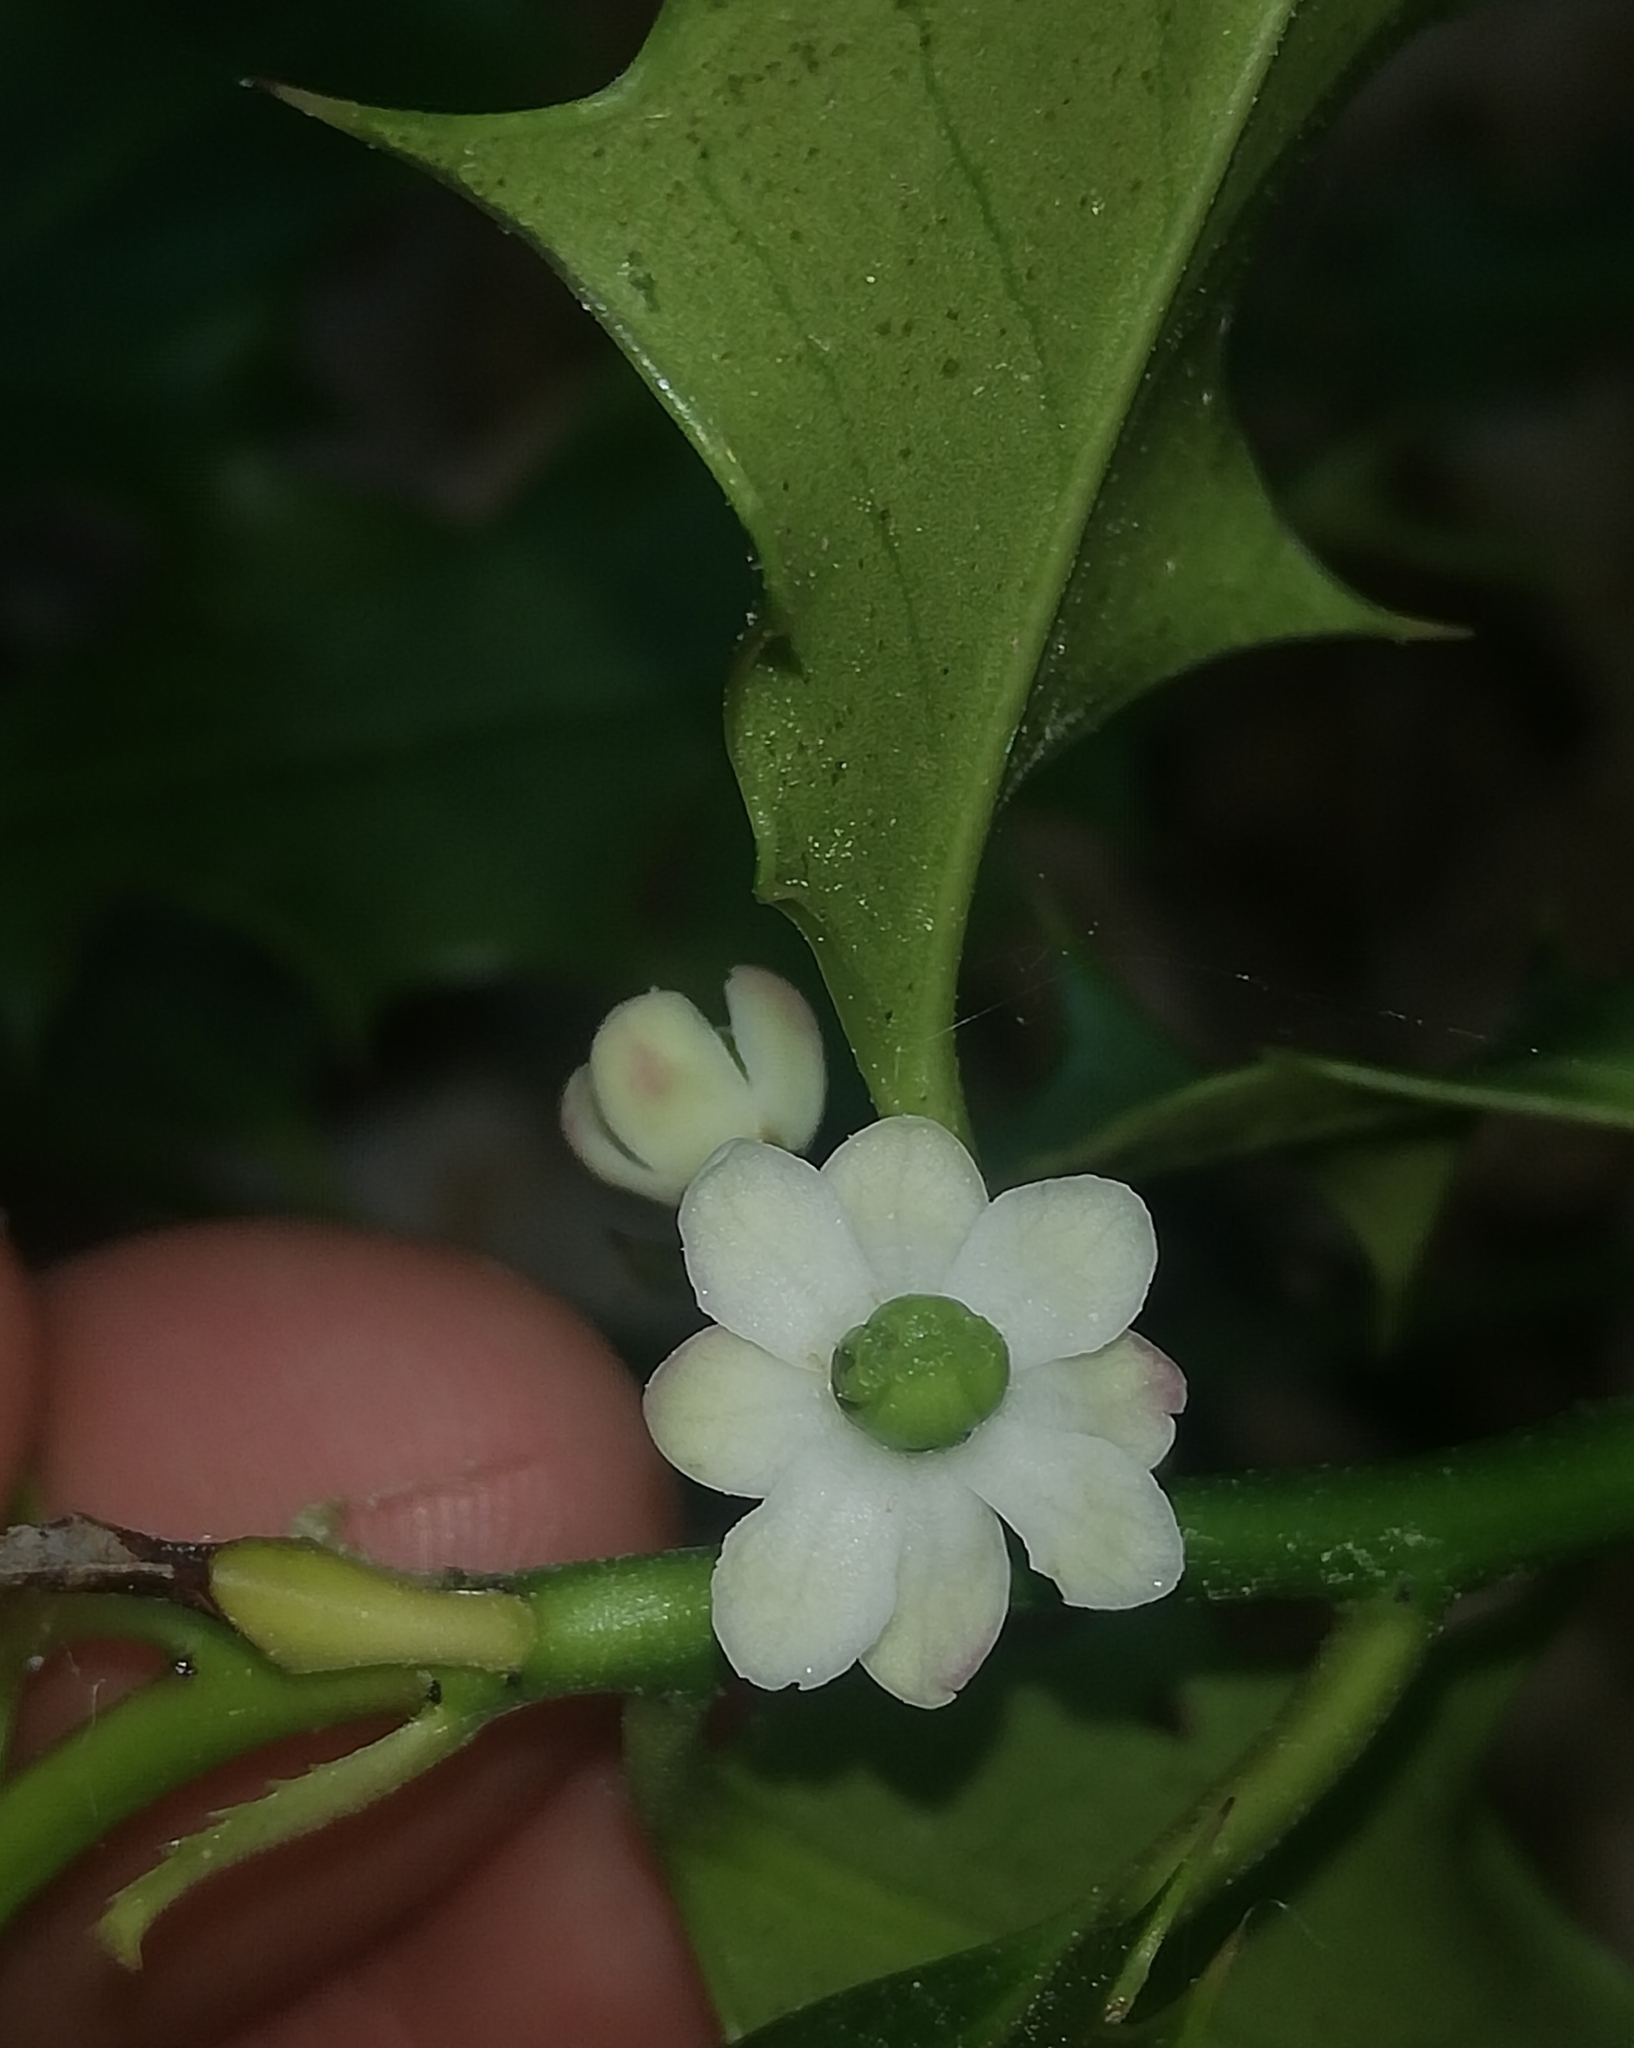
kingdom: Plantae
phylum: Tracheophyta
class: Magnoliopsida
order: Aquifoliales
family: Aquifoliaceae
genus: Ilex
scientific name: Ilex aquifolium
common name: English holly
